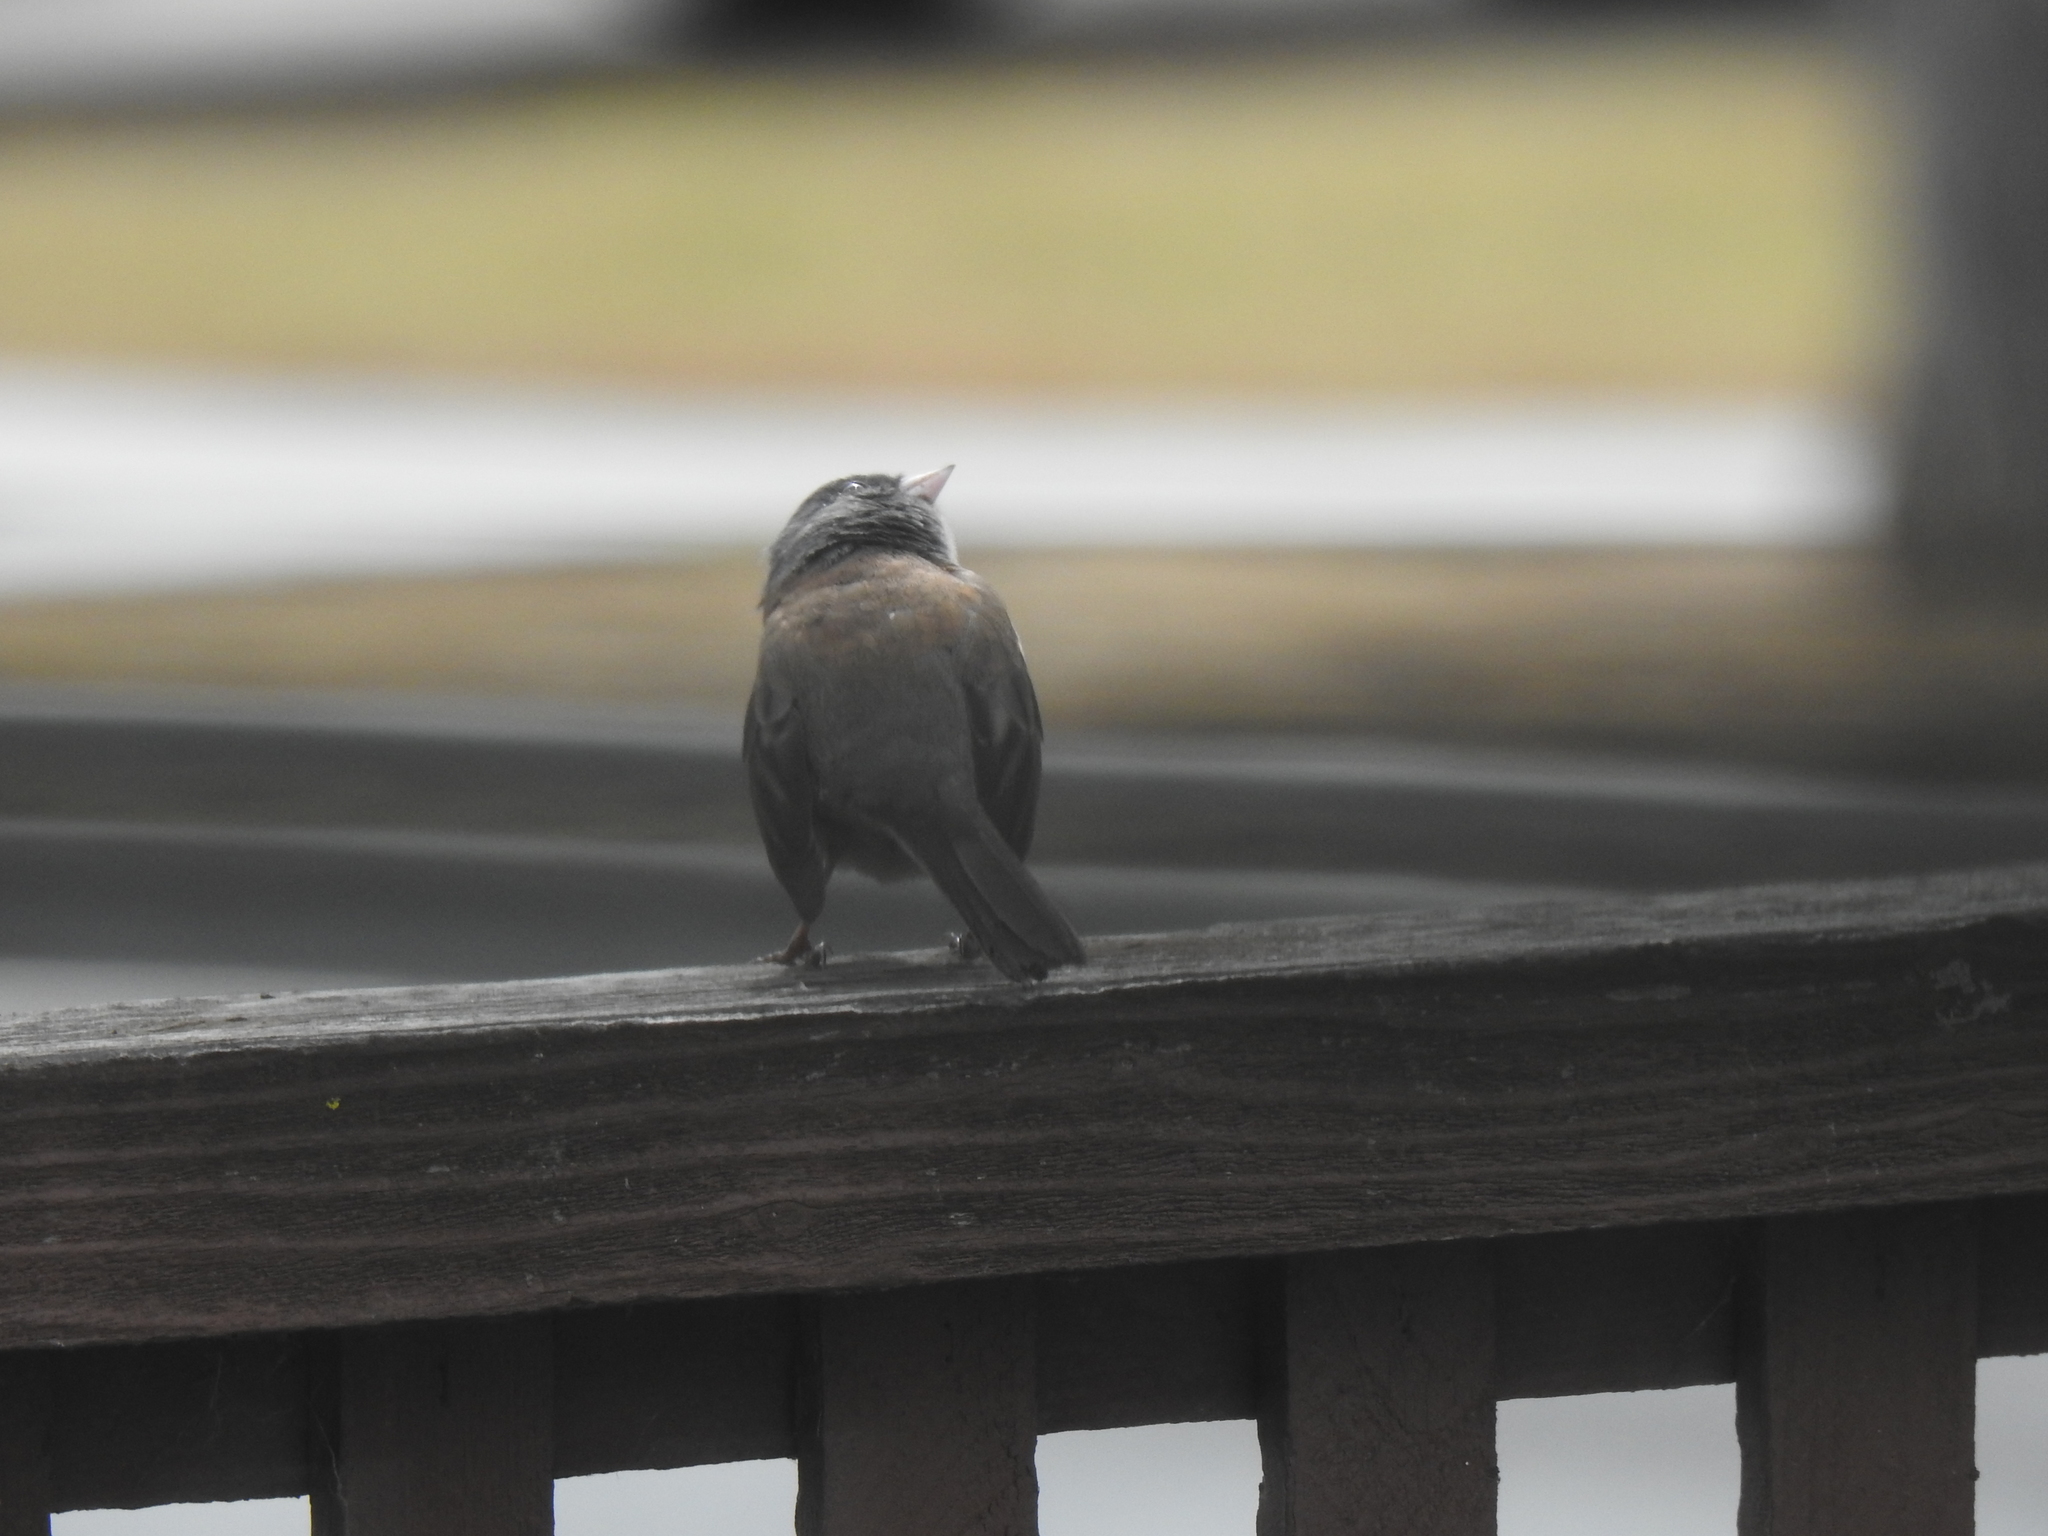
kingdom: Animalia
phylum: Chordata
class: Aves
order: Passeriformes
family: Passerellidae
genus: Junco
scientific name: Junco hyemalis
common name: Dark-eyed junco
